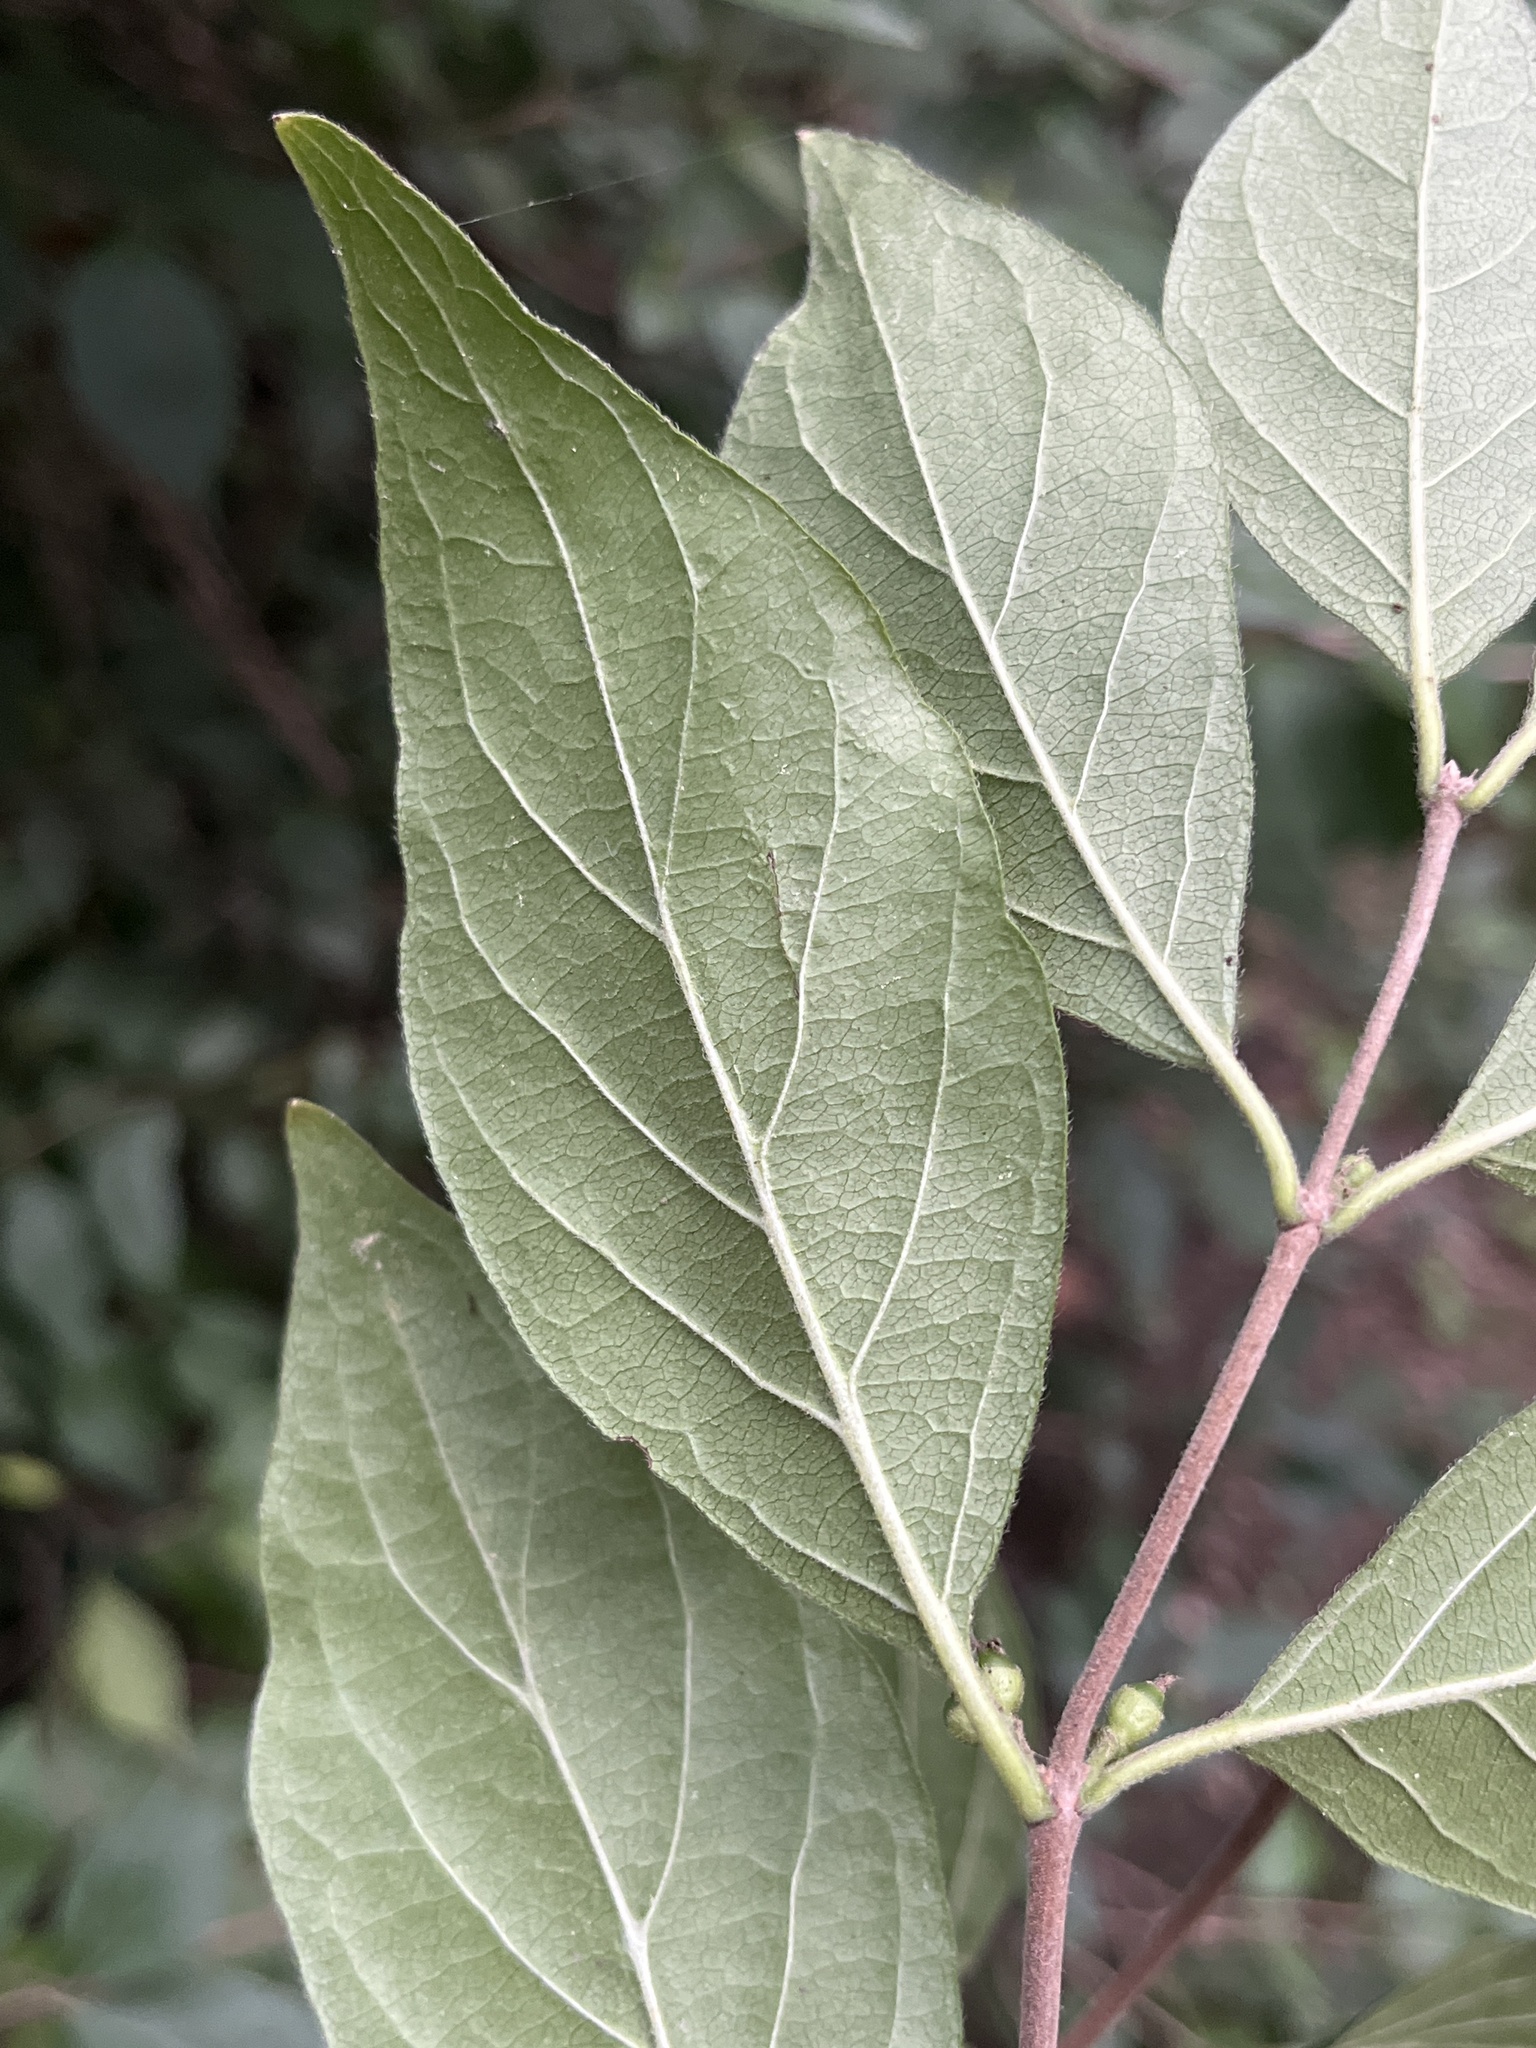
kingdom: Plantae
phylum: Tracheophyta
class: Magnoliopsida
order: Dipsacales
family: Caprifoliaceae
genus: Lonicera
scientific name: Lonicera maackii
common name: Amur honeysuckle
